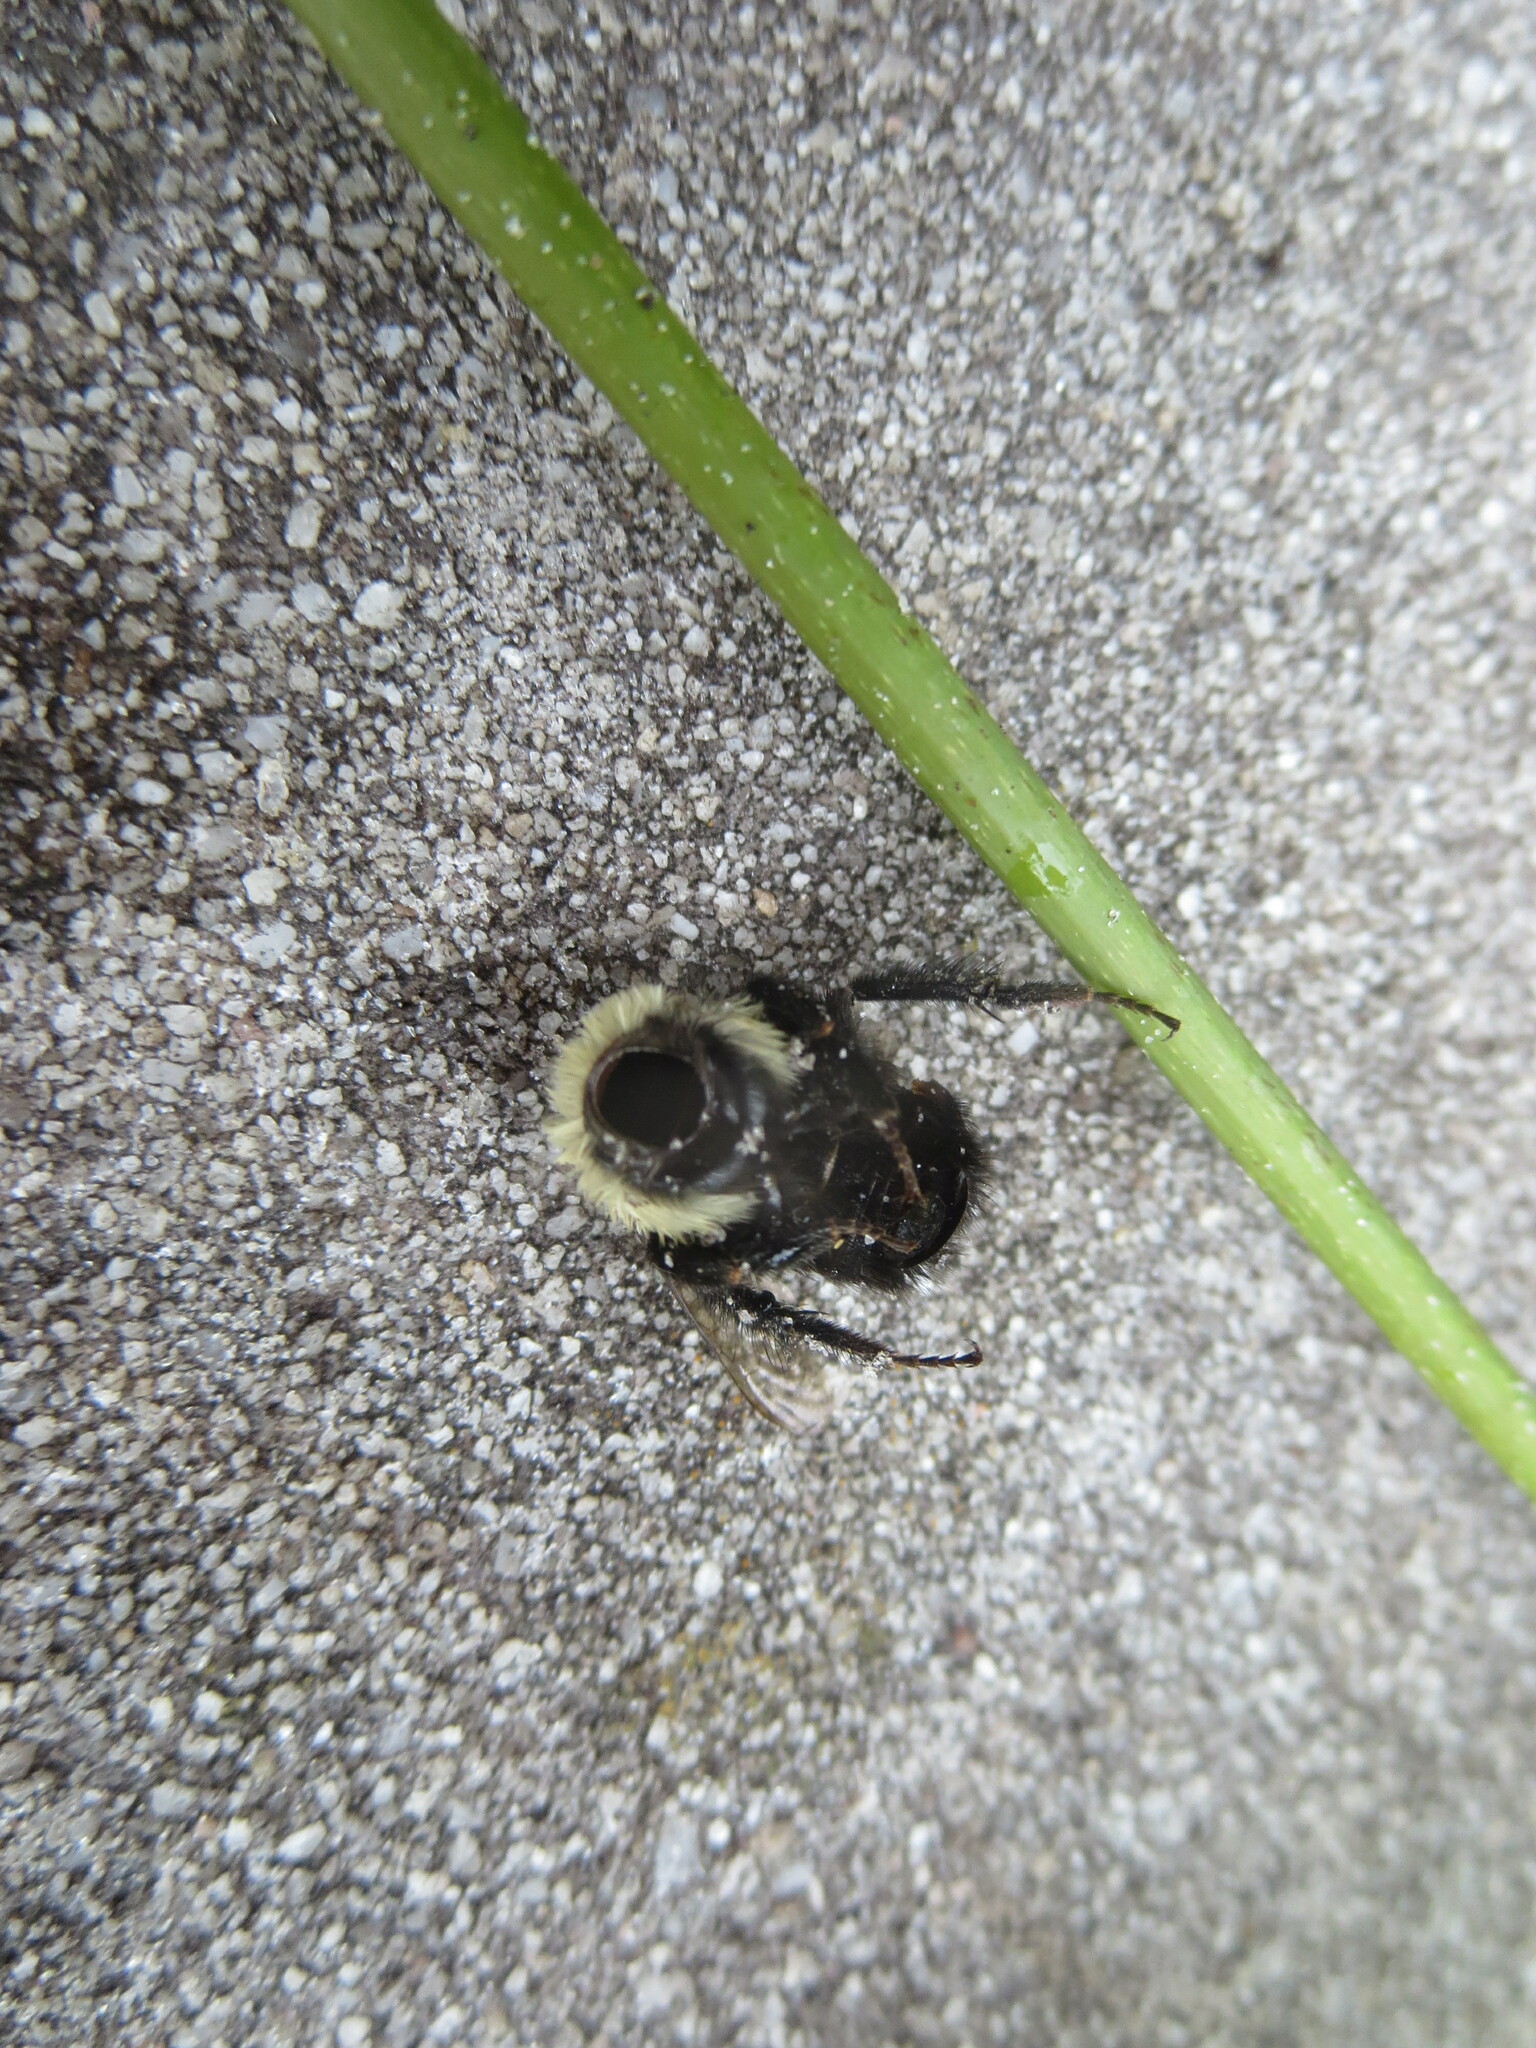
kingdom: Animalia
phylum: Arthropoda
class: Insecta
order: Hymenoptera
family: Apidae
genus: Bombus
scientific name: Bombus
